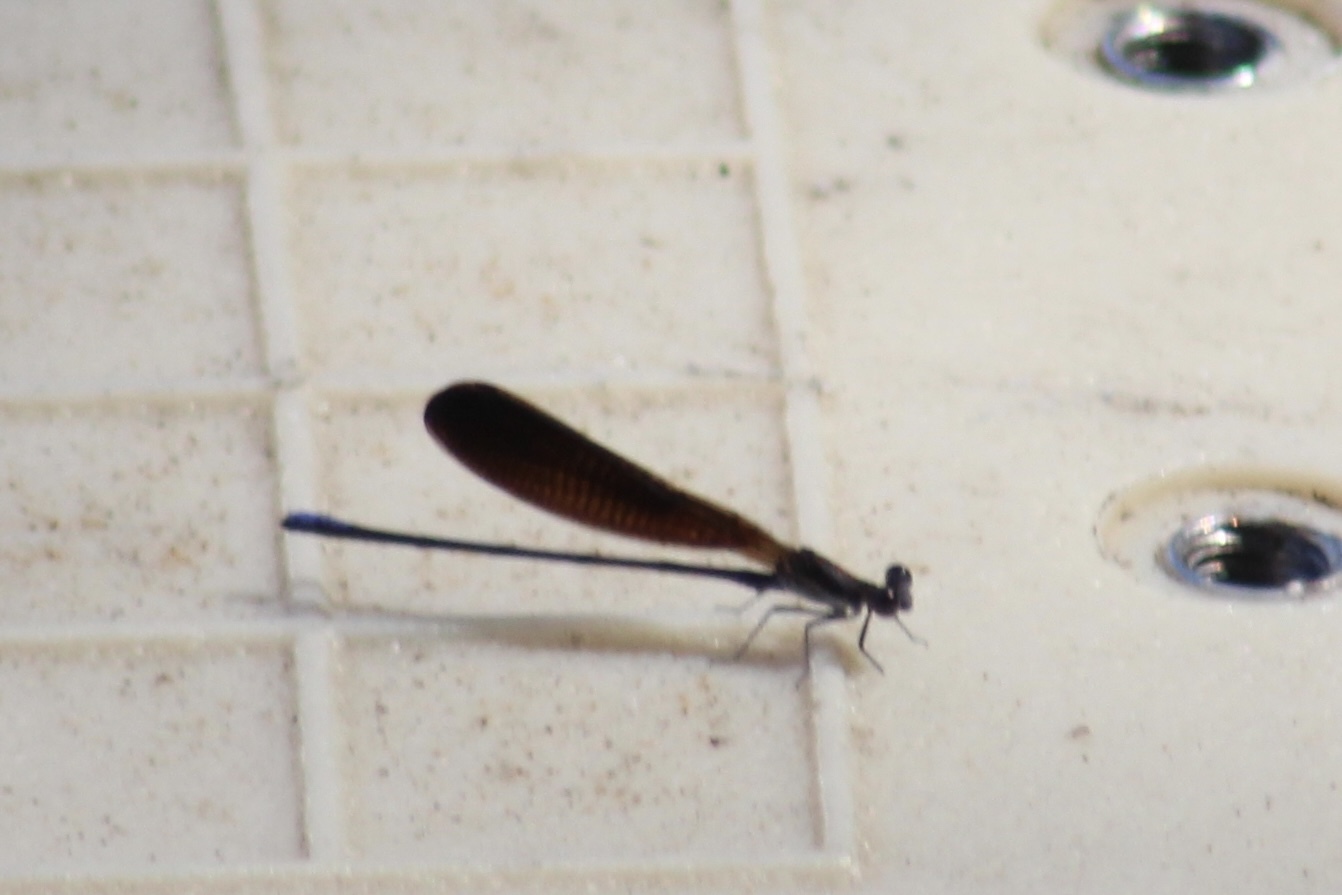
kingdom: Animalia
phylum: Arthropoda
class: Insecta
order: Odonata
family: Coenagrionidae
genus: Argia
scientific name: Argia fumipennis
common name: Variable dancer
